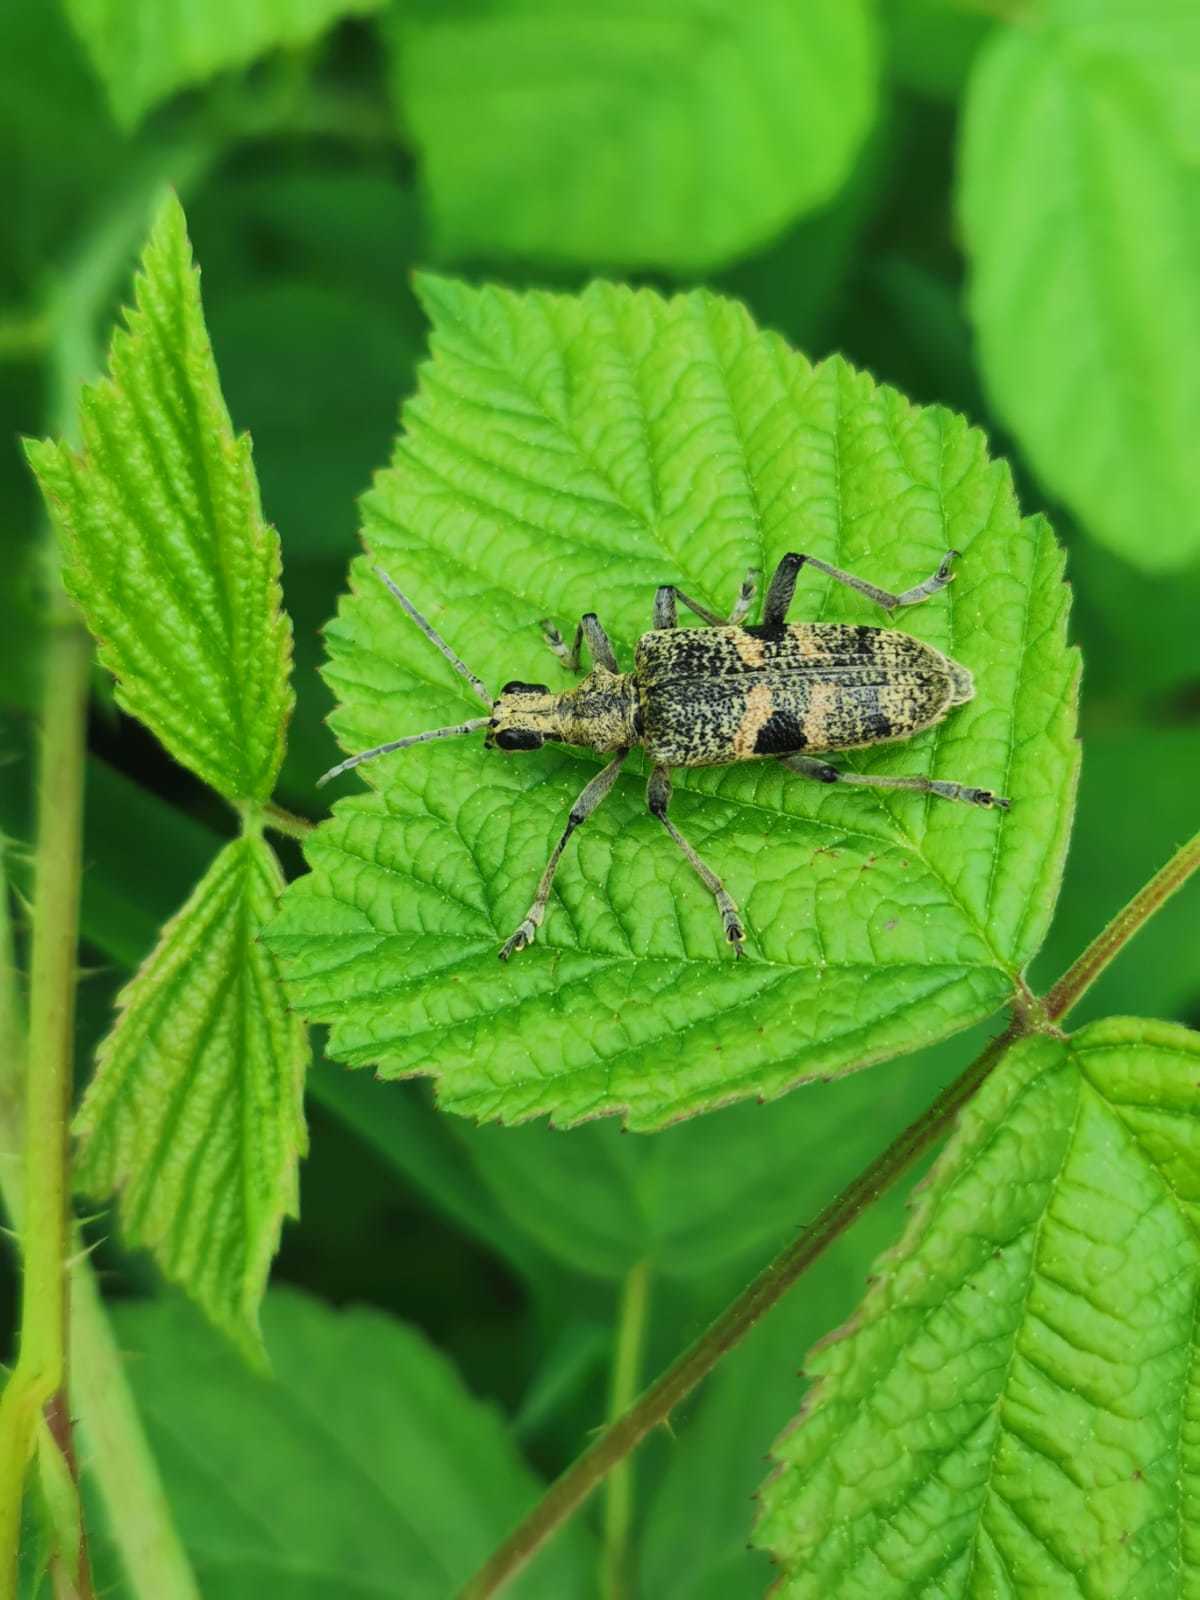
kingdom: Animalia
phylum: Arthropoda
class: Insecta
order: Coleoptera
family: Cerambycidae
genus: Rhagium
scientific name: Rhagium mordax
